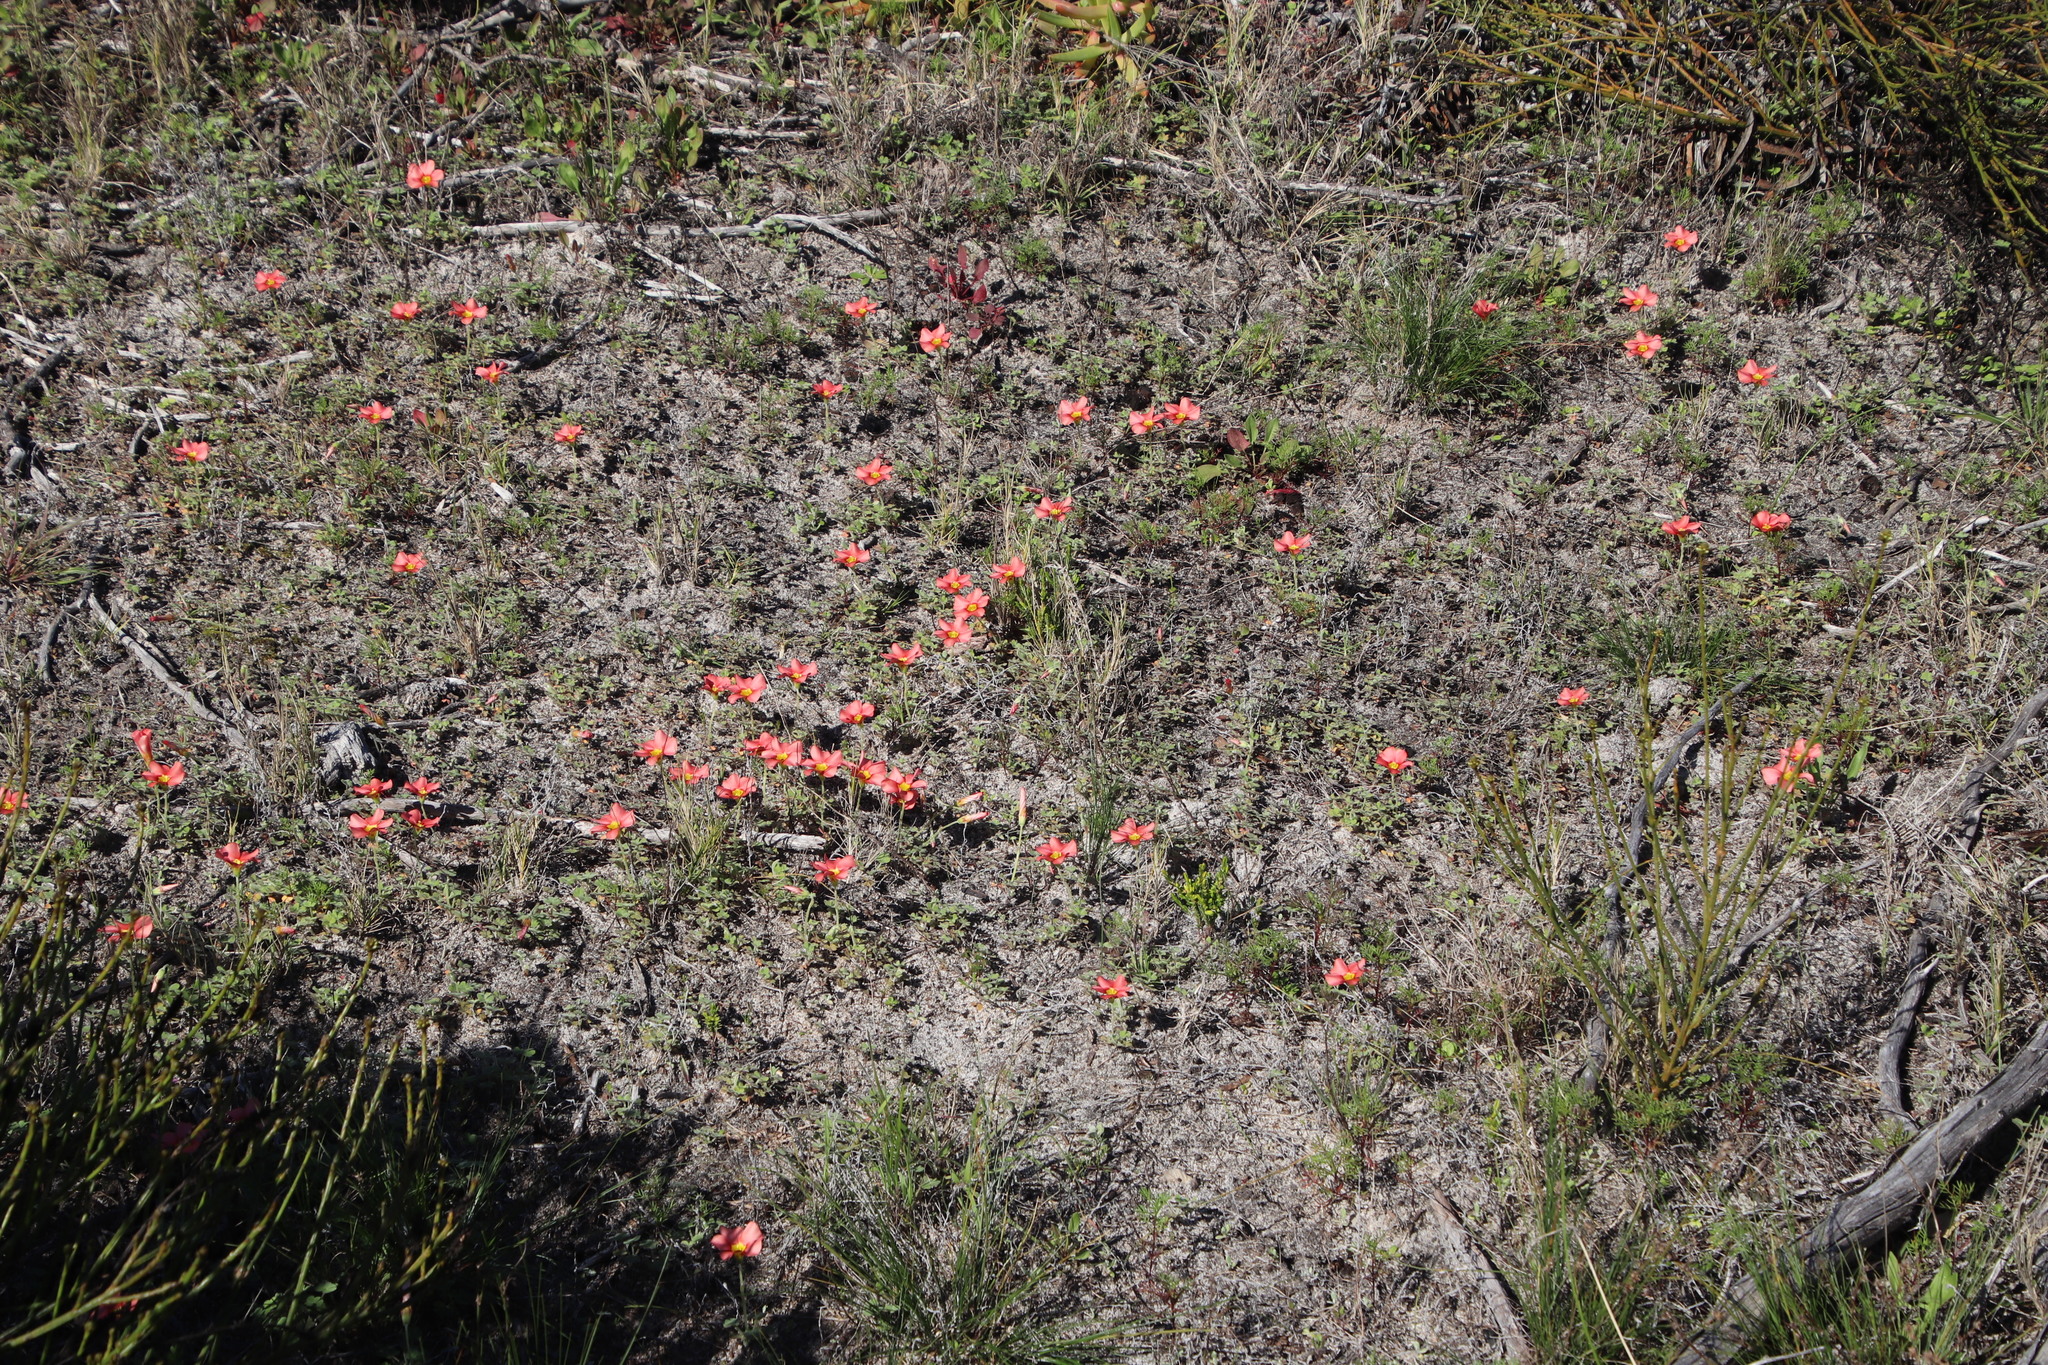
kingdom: Plantae
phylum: Tracheophyta
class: Magnoliopsida
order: Oxalidales
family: Oxalidaceae
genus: Oxalis
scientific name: Oxalis obtusa
